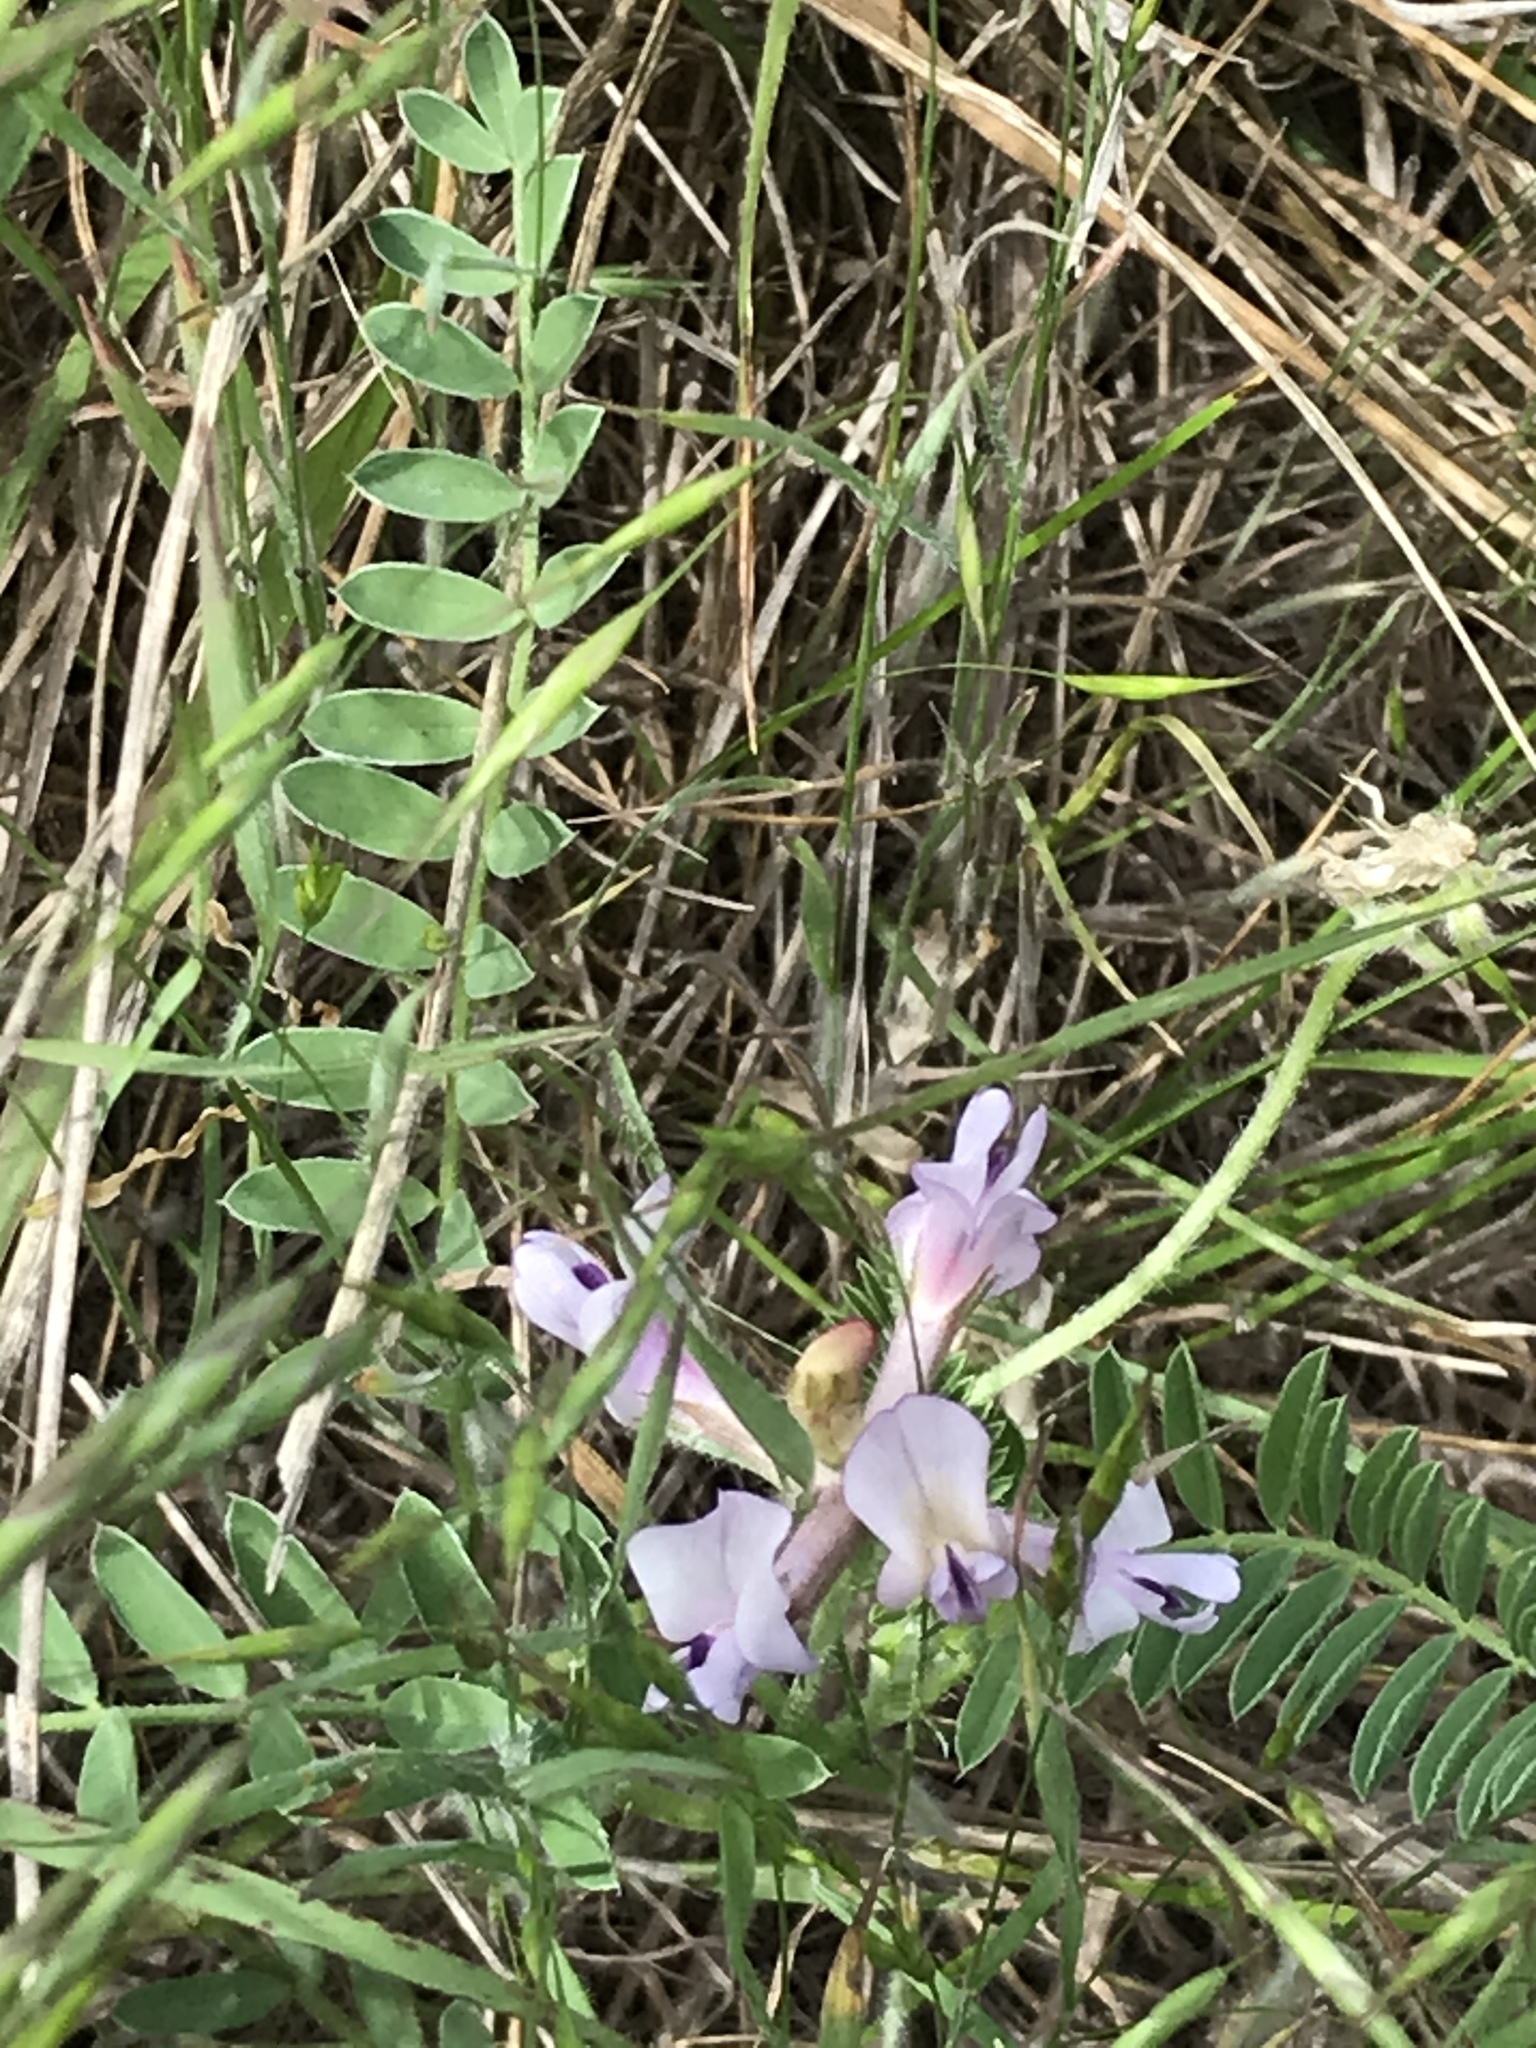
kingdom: Plantae
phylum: Tracheophyta
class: Magnoliopsida
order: Fabales
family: Fabaceae
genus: Astragalus
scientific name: Astragalus crassicarpus
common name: Ground-plum milk-vetch
